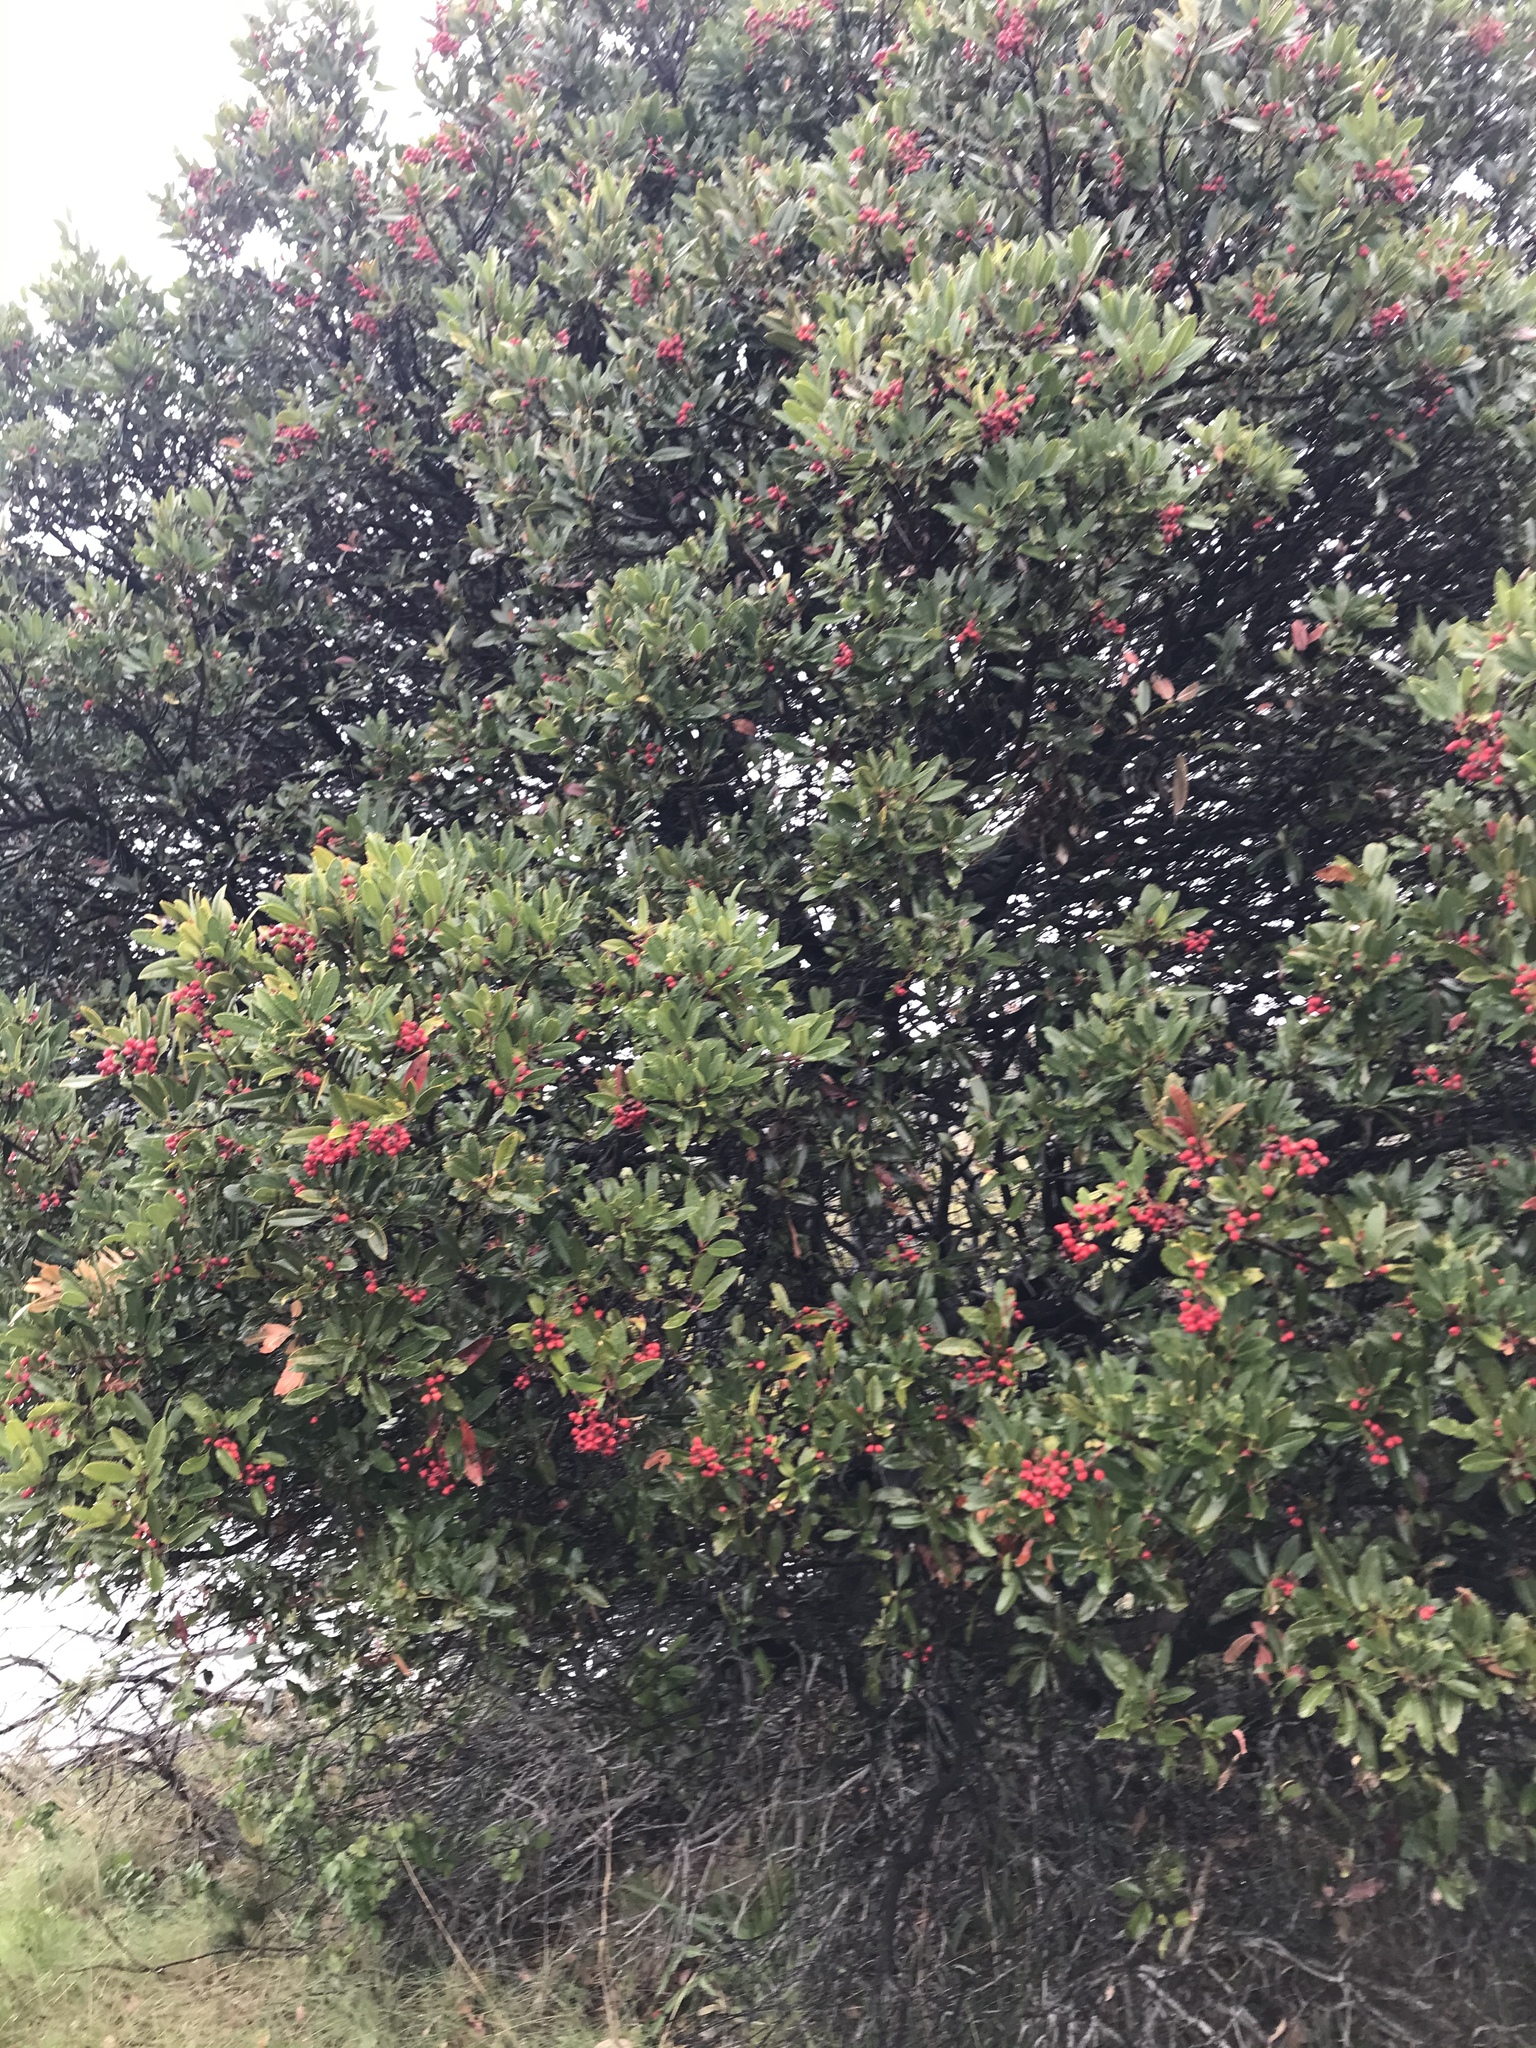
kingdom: Plantae
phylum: Tracheophyta
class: Magnoliopsida
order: Rosales
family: Rosaceae
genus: Heteromeles
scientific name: Heteromeles arbutifolia
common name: California-holly
